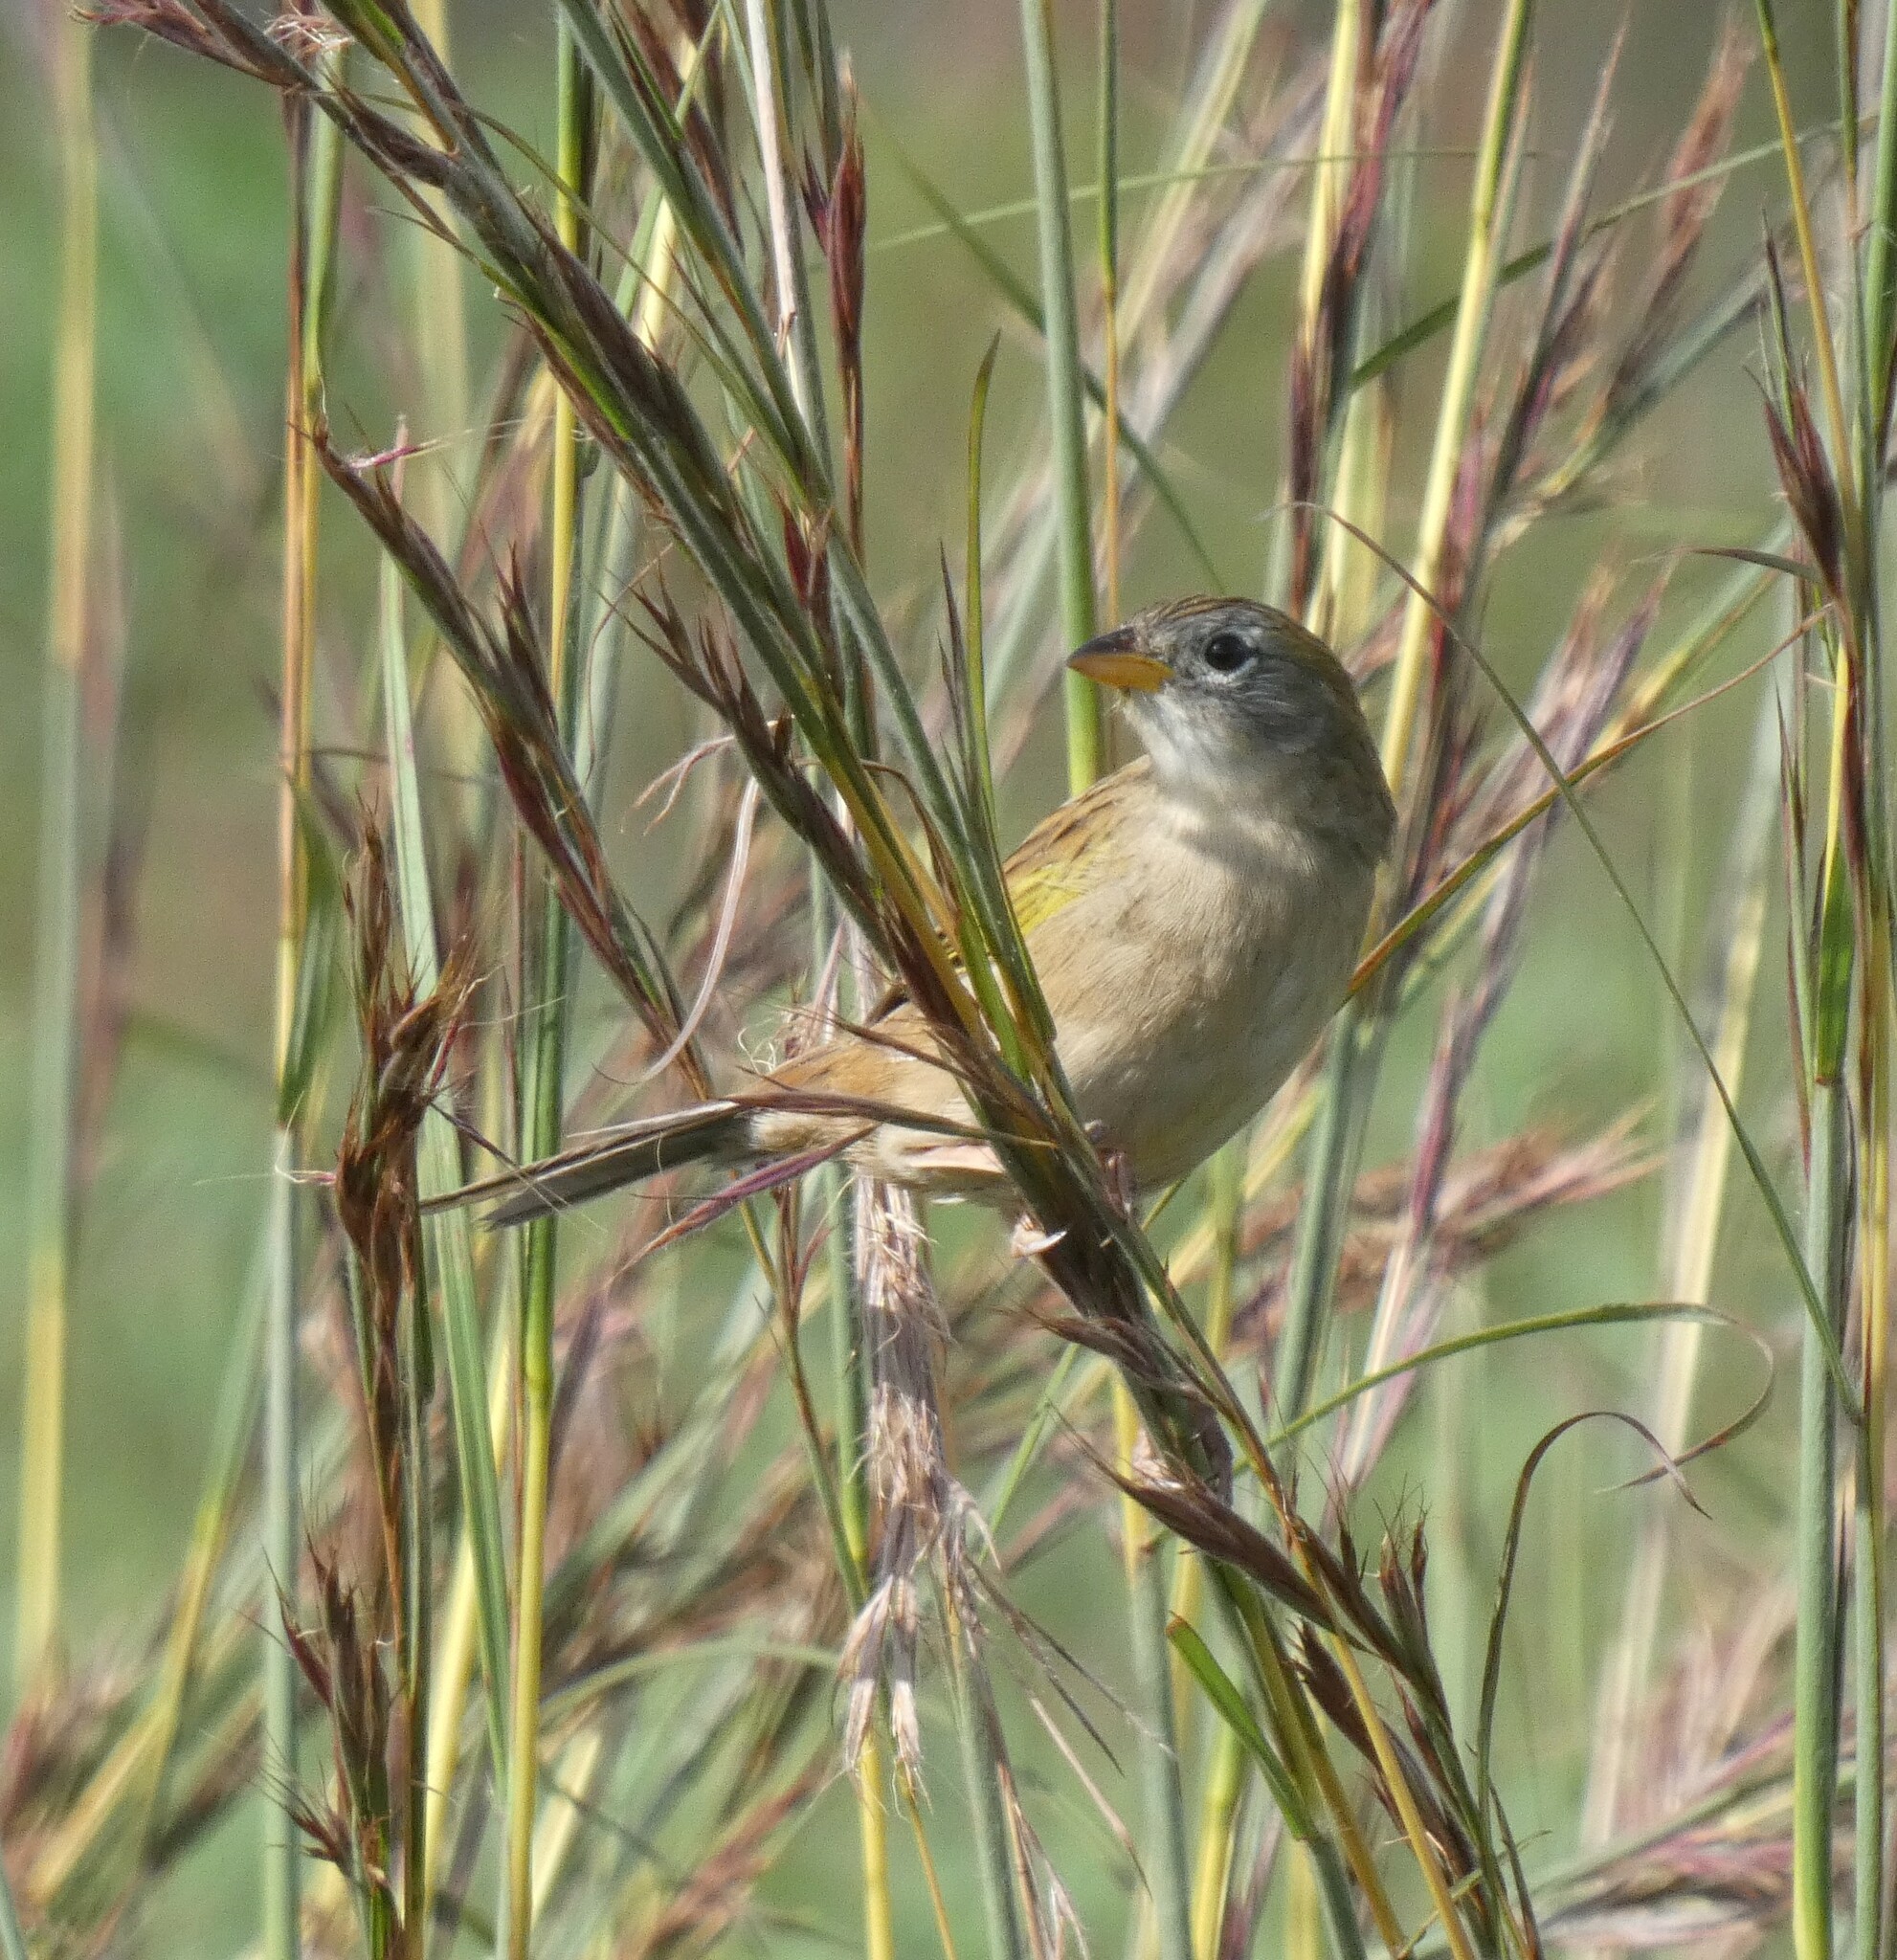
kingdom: Animalia
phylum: Chordata
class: Aves
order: Passeriformes
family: Thraupidae
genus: Emberizoides
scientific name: Emberizoides herbicola
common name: Wedge-tailed grass-finch
